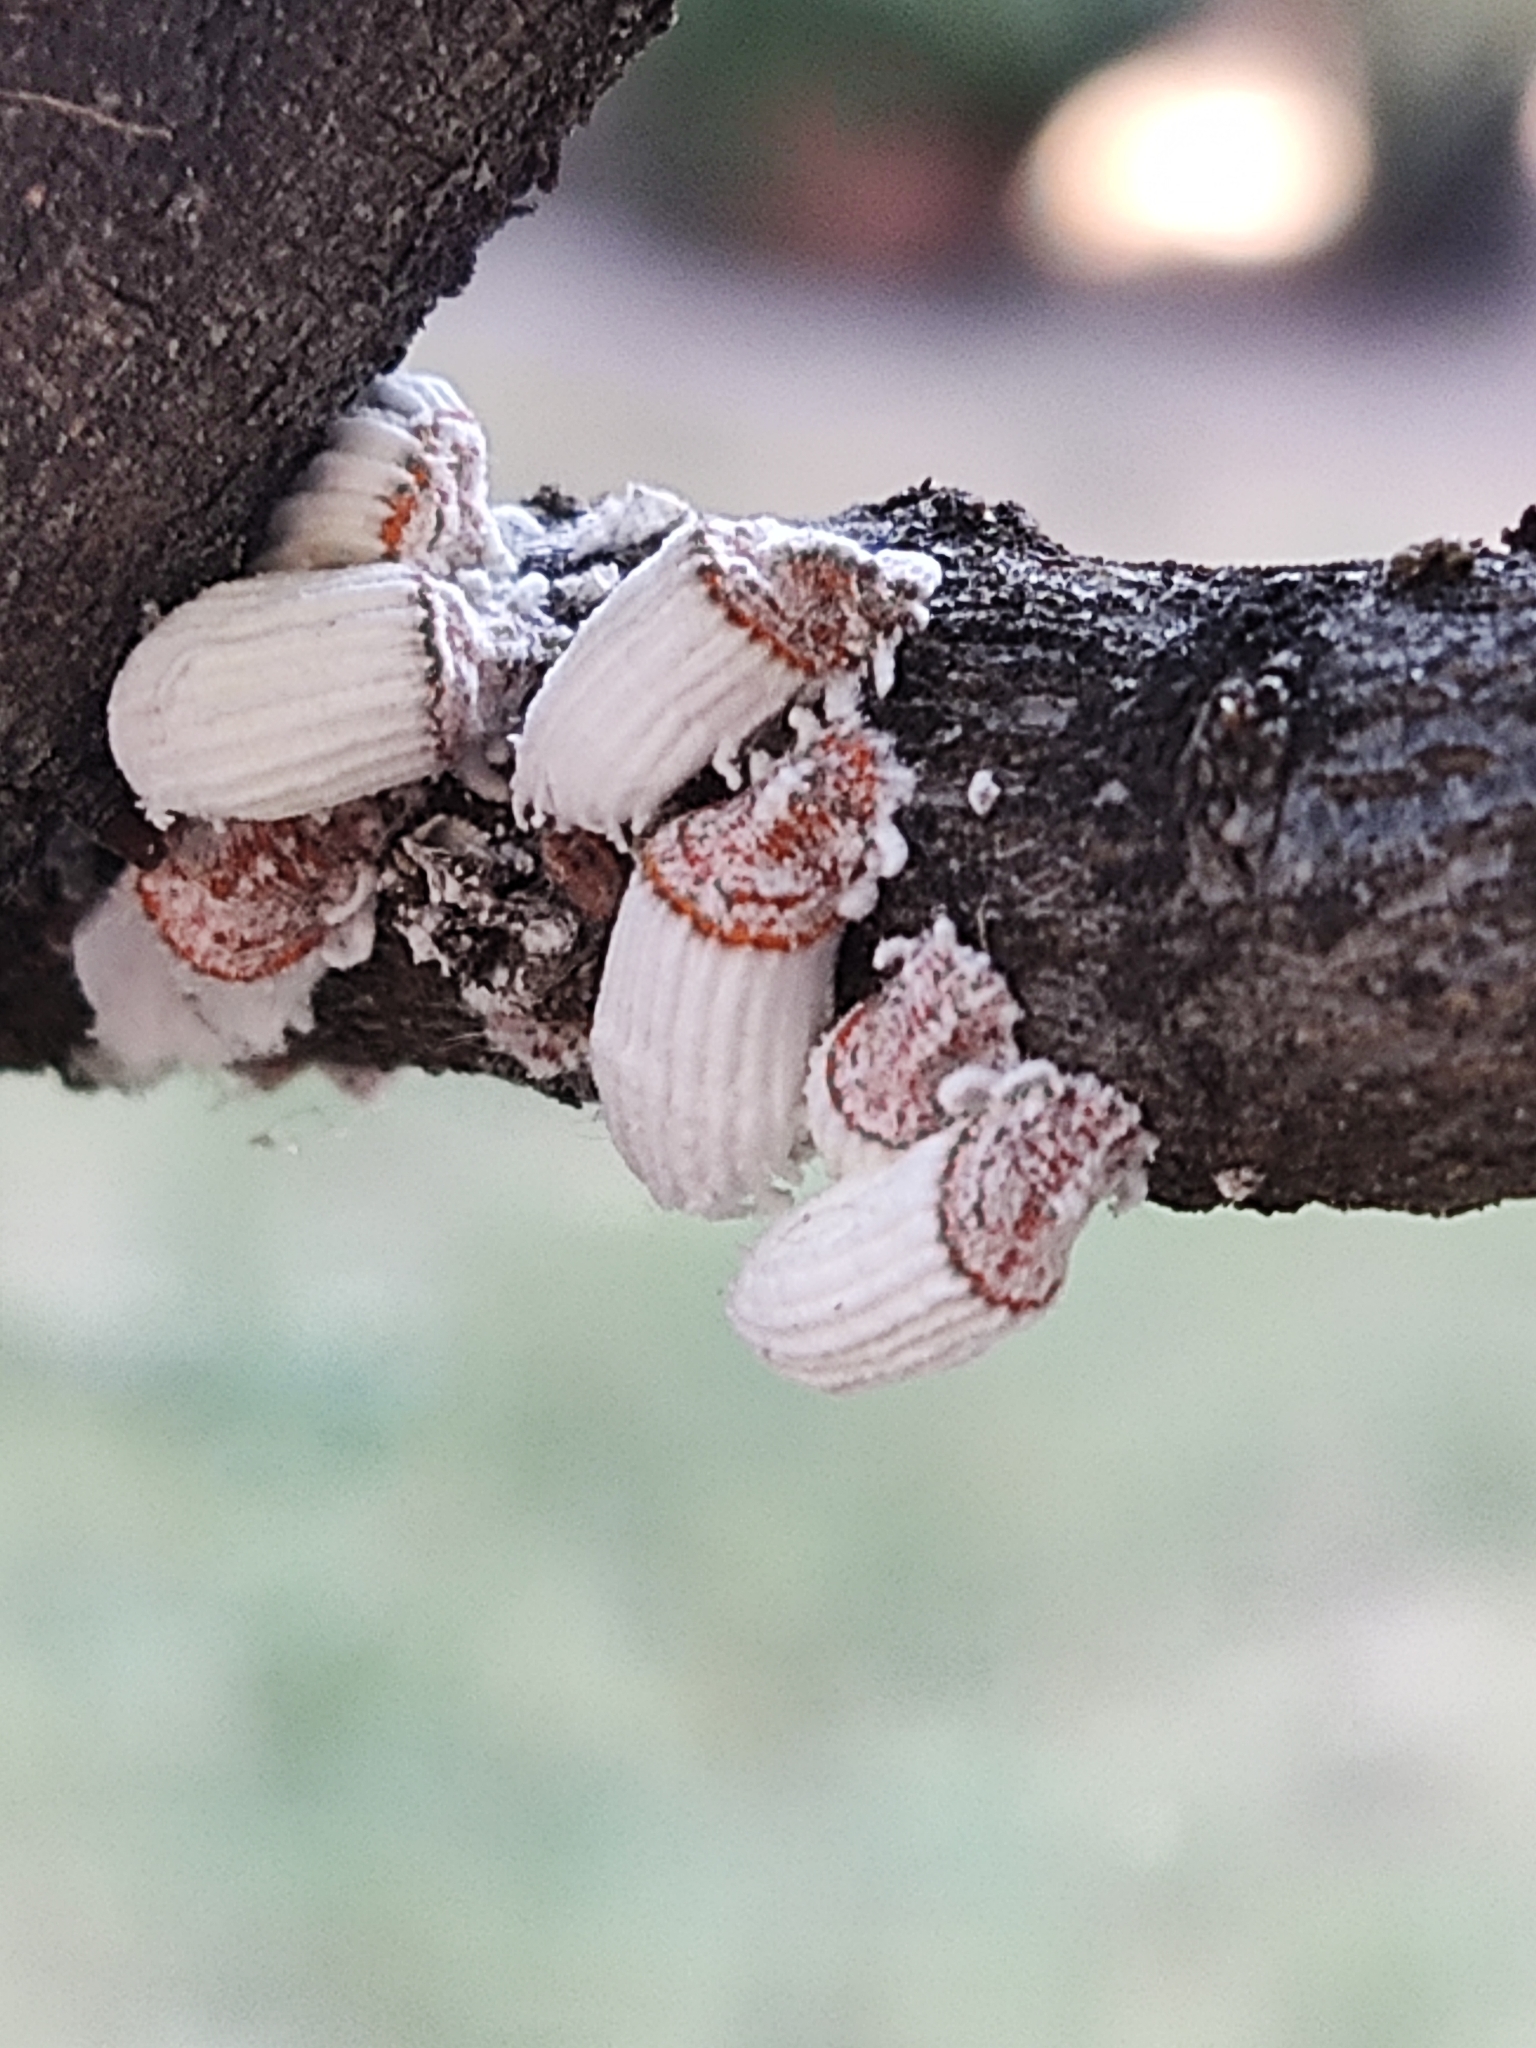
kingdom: Animalia
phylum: Arthropoda
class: Insecta
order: Hemiptera
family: Margarodidae
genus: Icerya
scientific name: Icerya purchasi
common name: Cottony cushion scale
